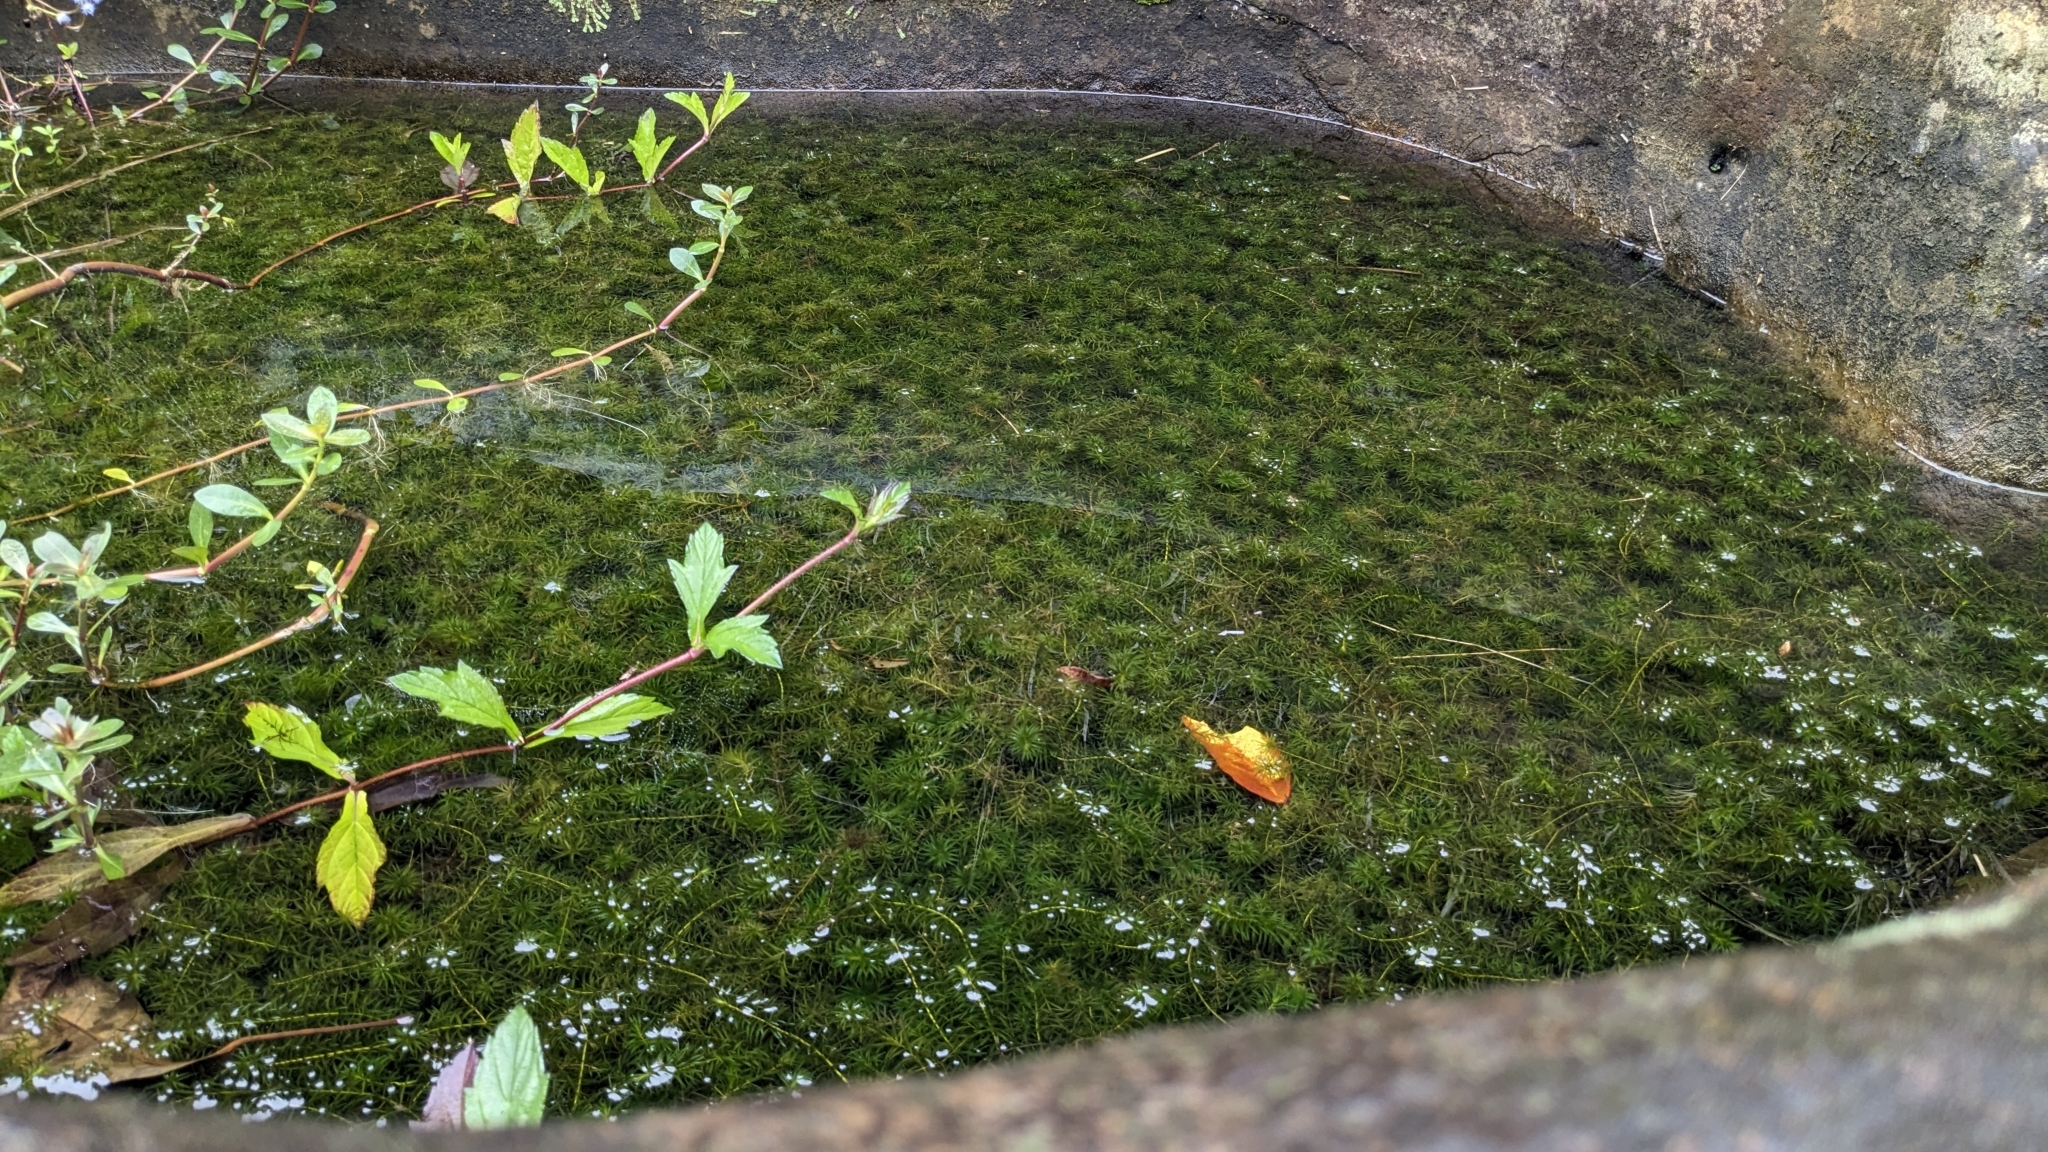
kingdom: Plantae
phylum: Tracheophyta
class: Liliopsida
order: Alismatales
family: Hydrocharitaceae
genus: Hydrilla
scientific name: Hydrilla verticillata
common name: Florida-elodea
